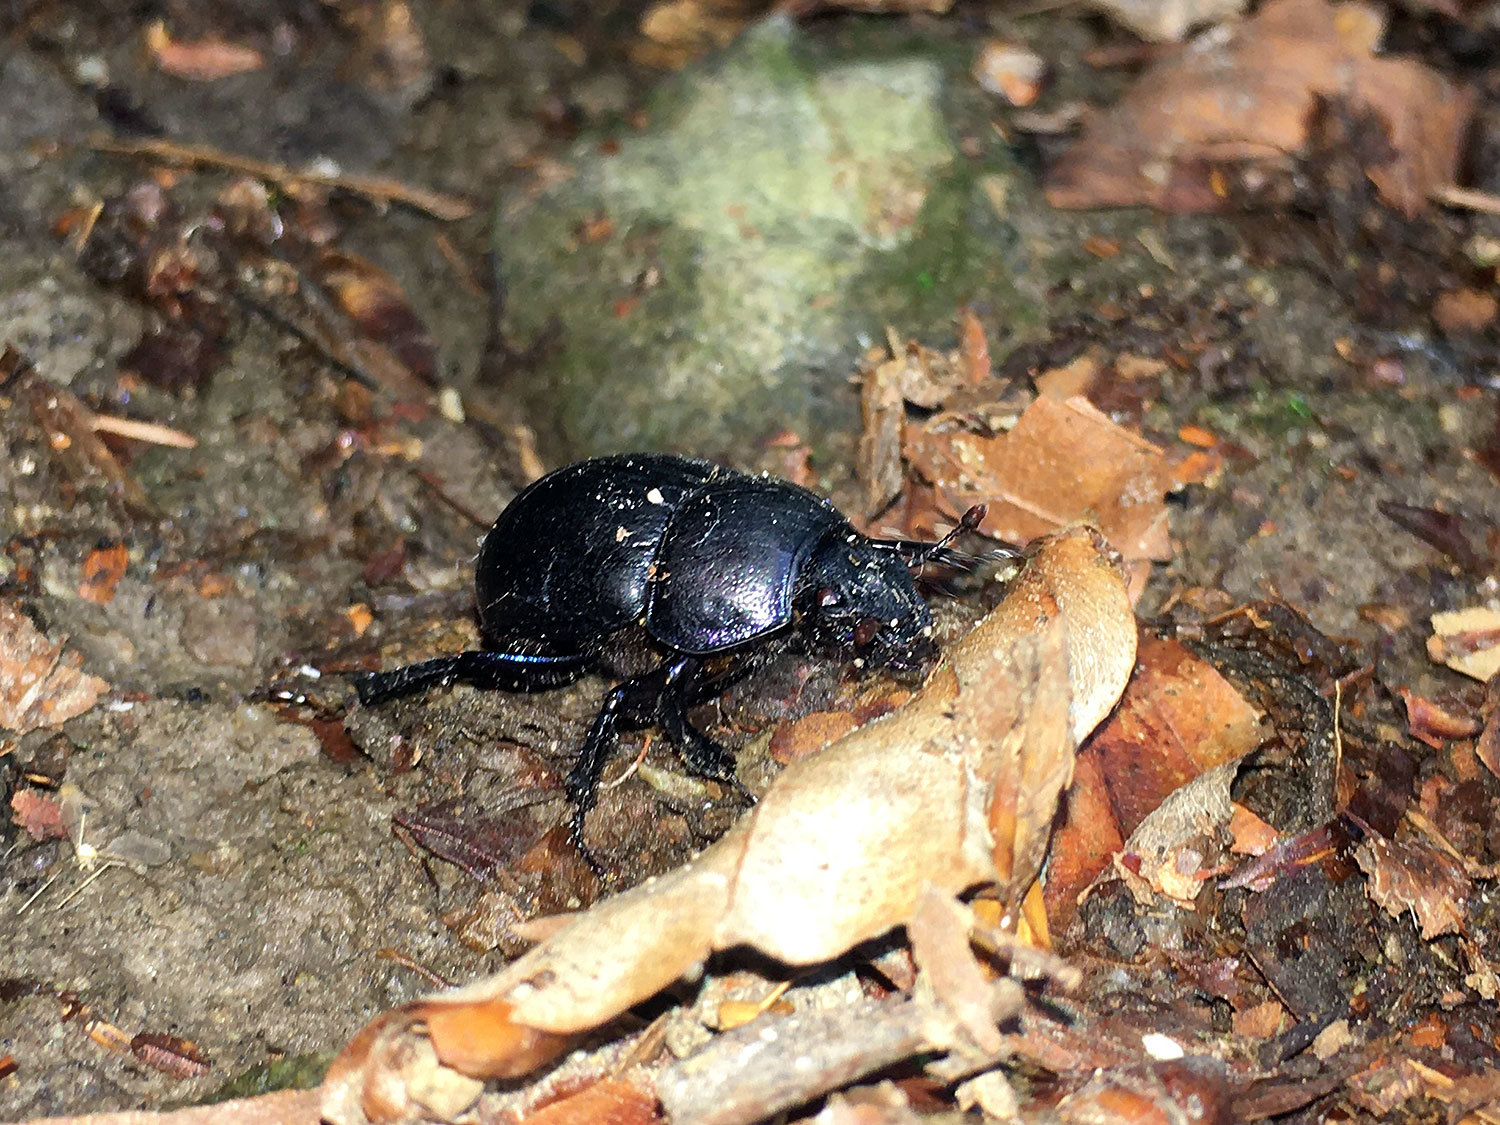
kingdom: Animalia
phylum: Arthropoda
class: Insecta
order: Coleoptera
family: Geotrupidae
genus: Anoplotrupes
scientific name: Anoplotrupes stercorosus
